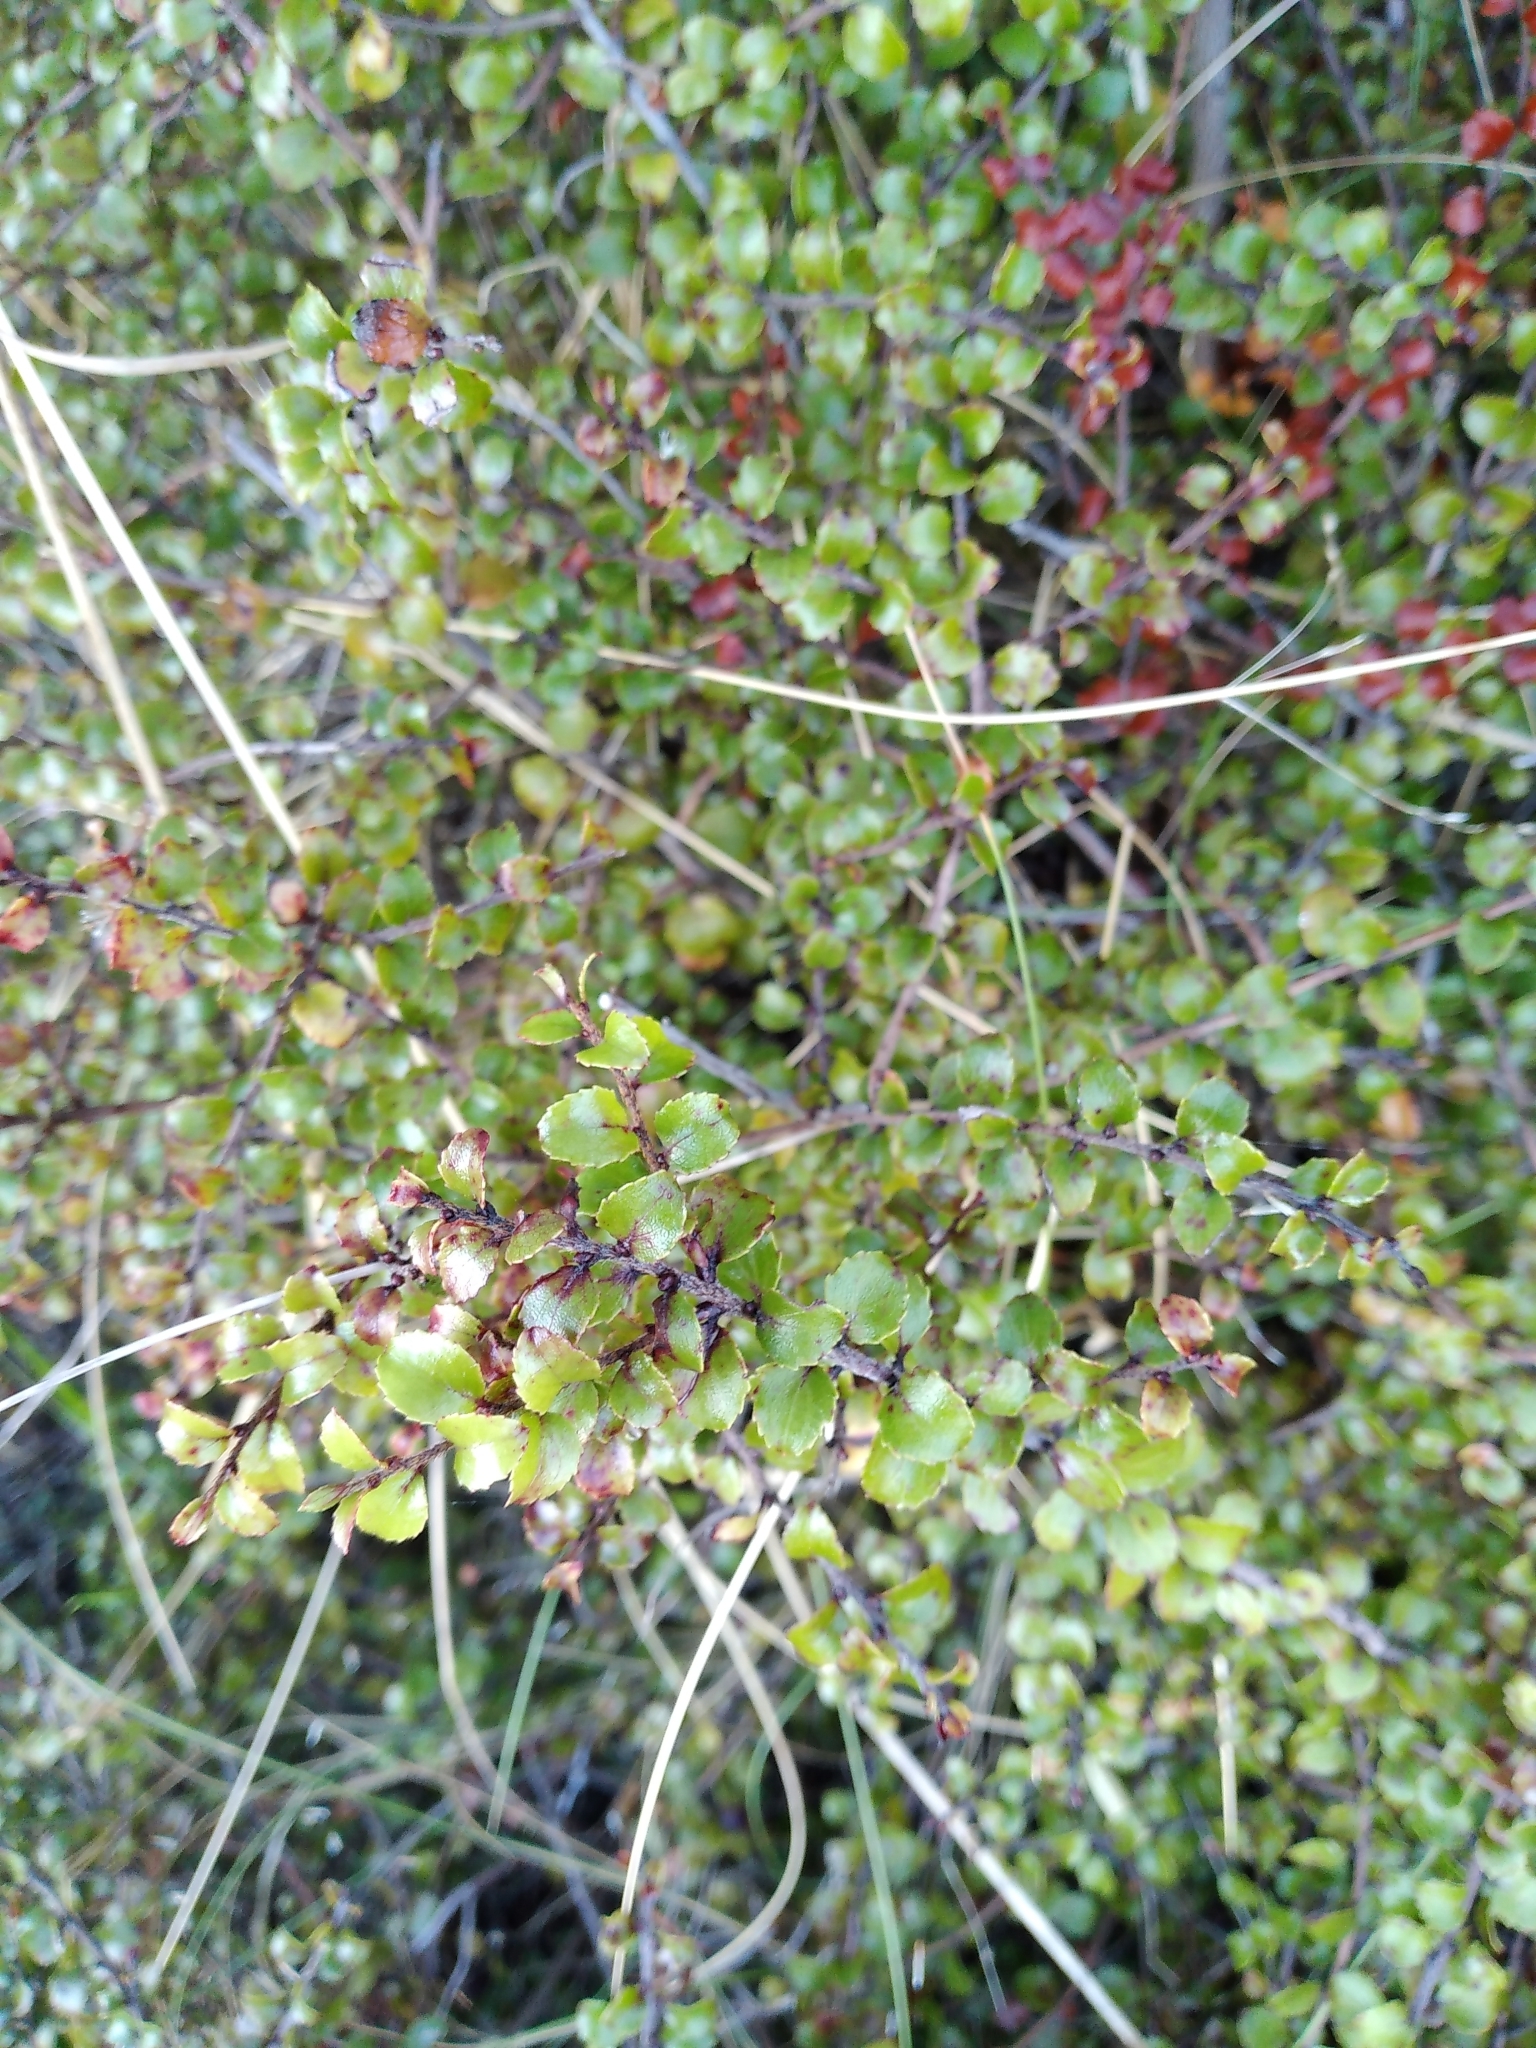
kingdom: Plantae
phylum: Tracheophyta
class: Magnoliopsida
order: Ericales
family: Ericaceae
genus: Gaultheria
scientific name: Gaultheria antipoda
